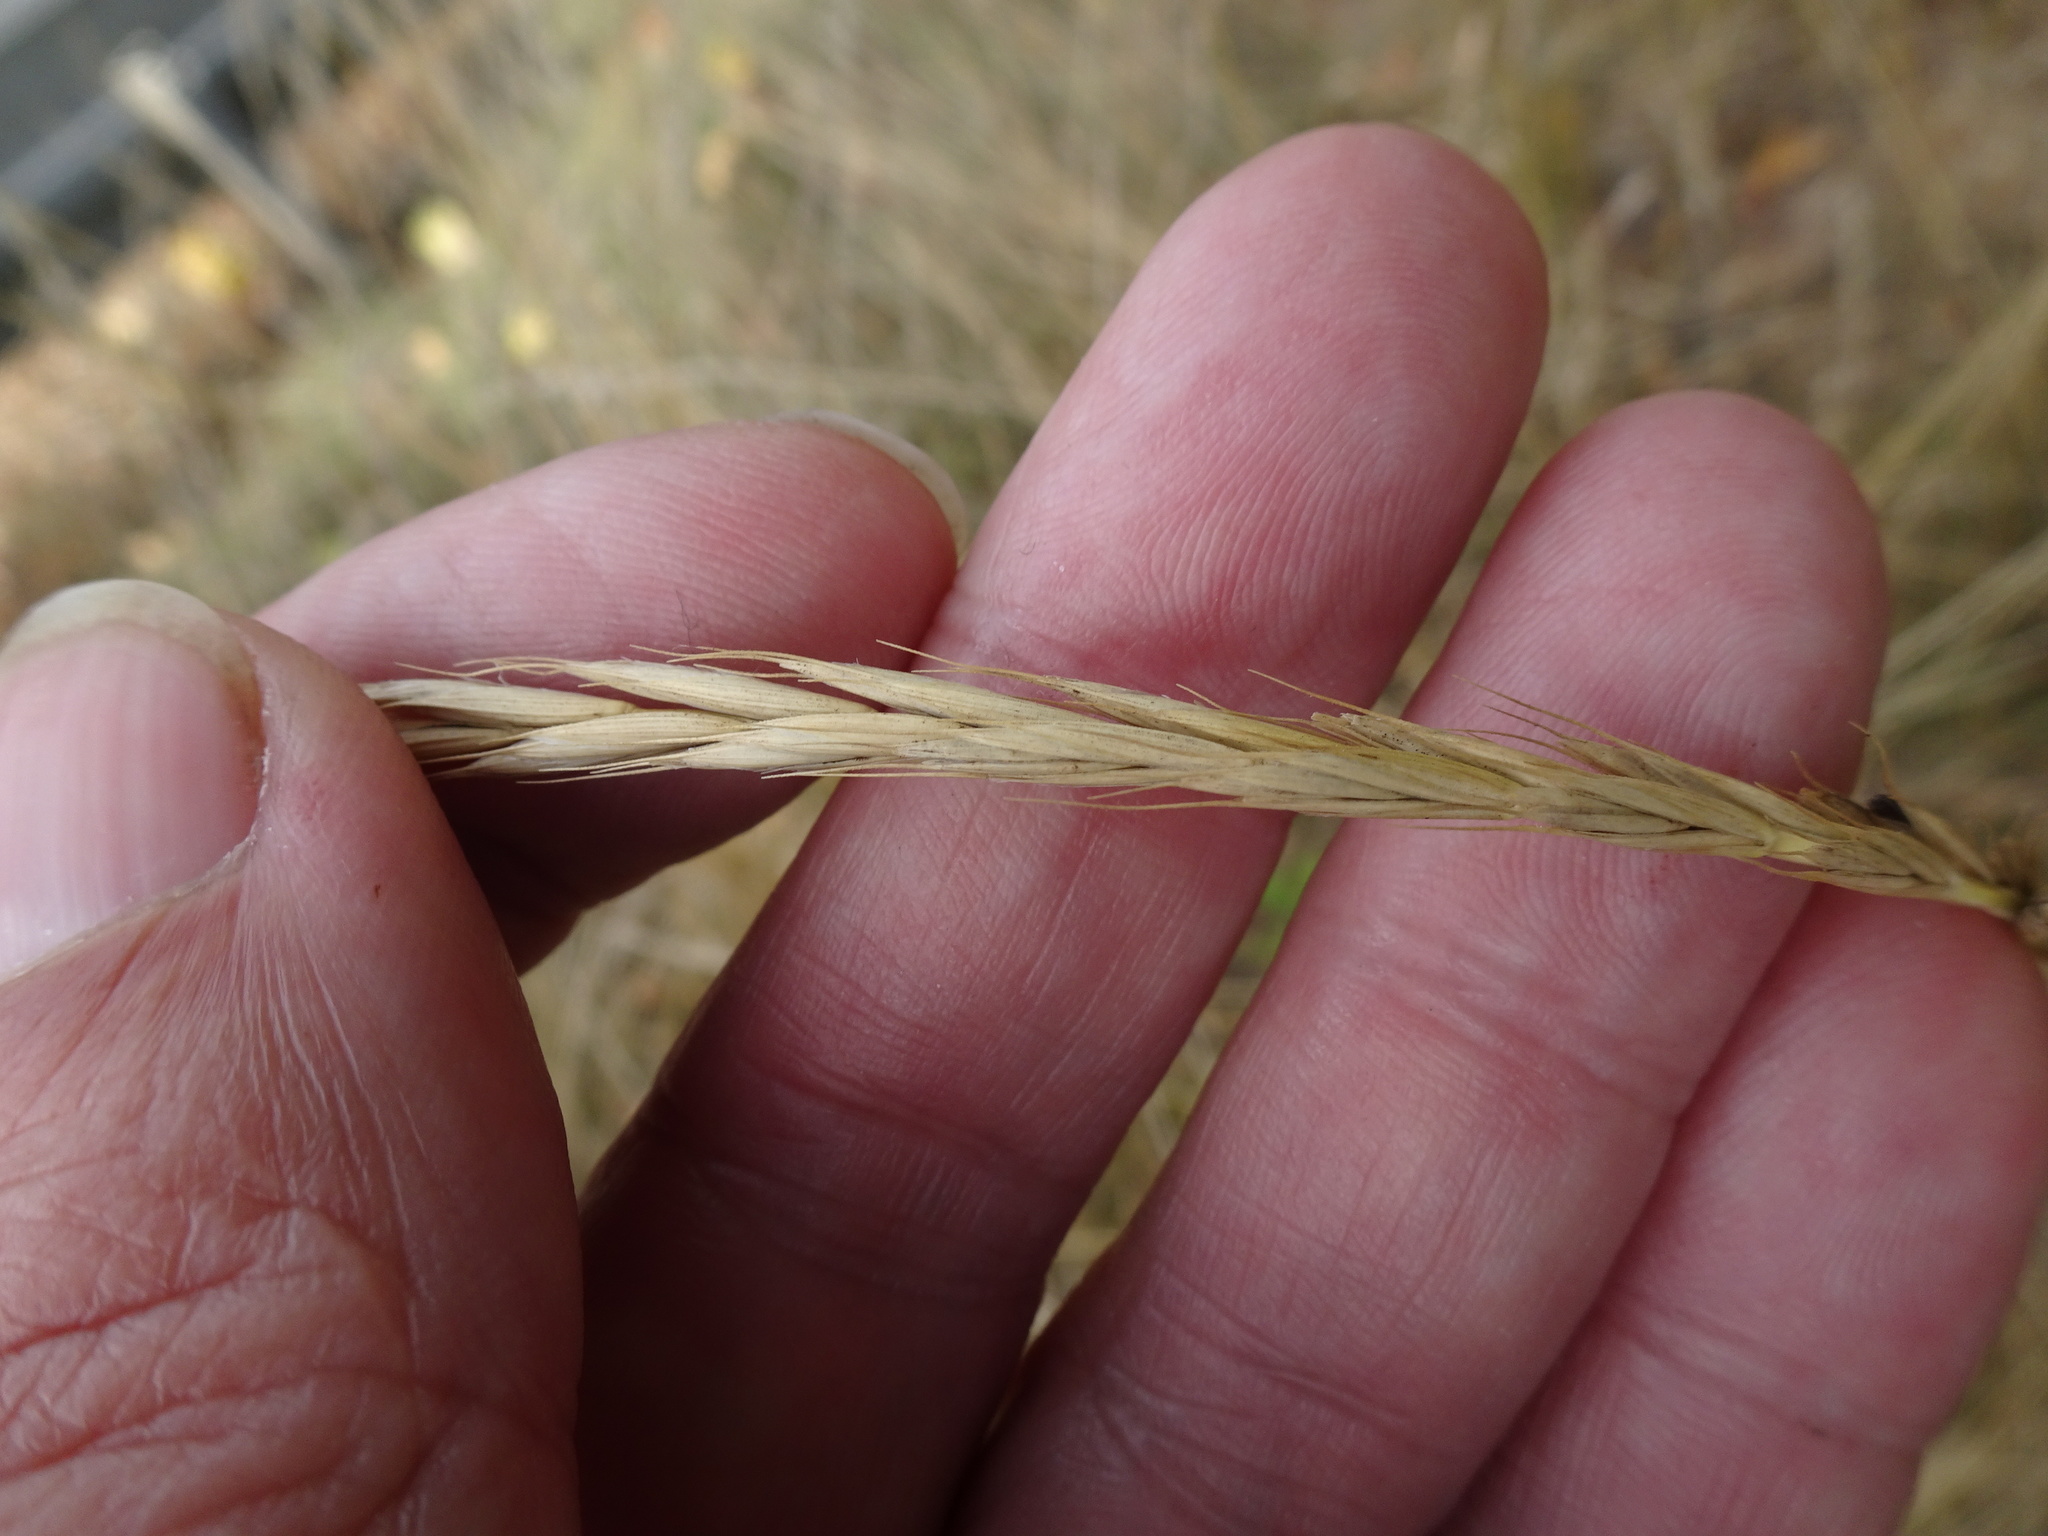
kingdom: Plantae
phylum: Tracheophyta
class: Liliopsida
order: Poales
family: Poaceae
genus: Elymus
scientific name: Elymus caninus
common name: Bearded couch
